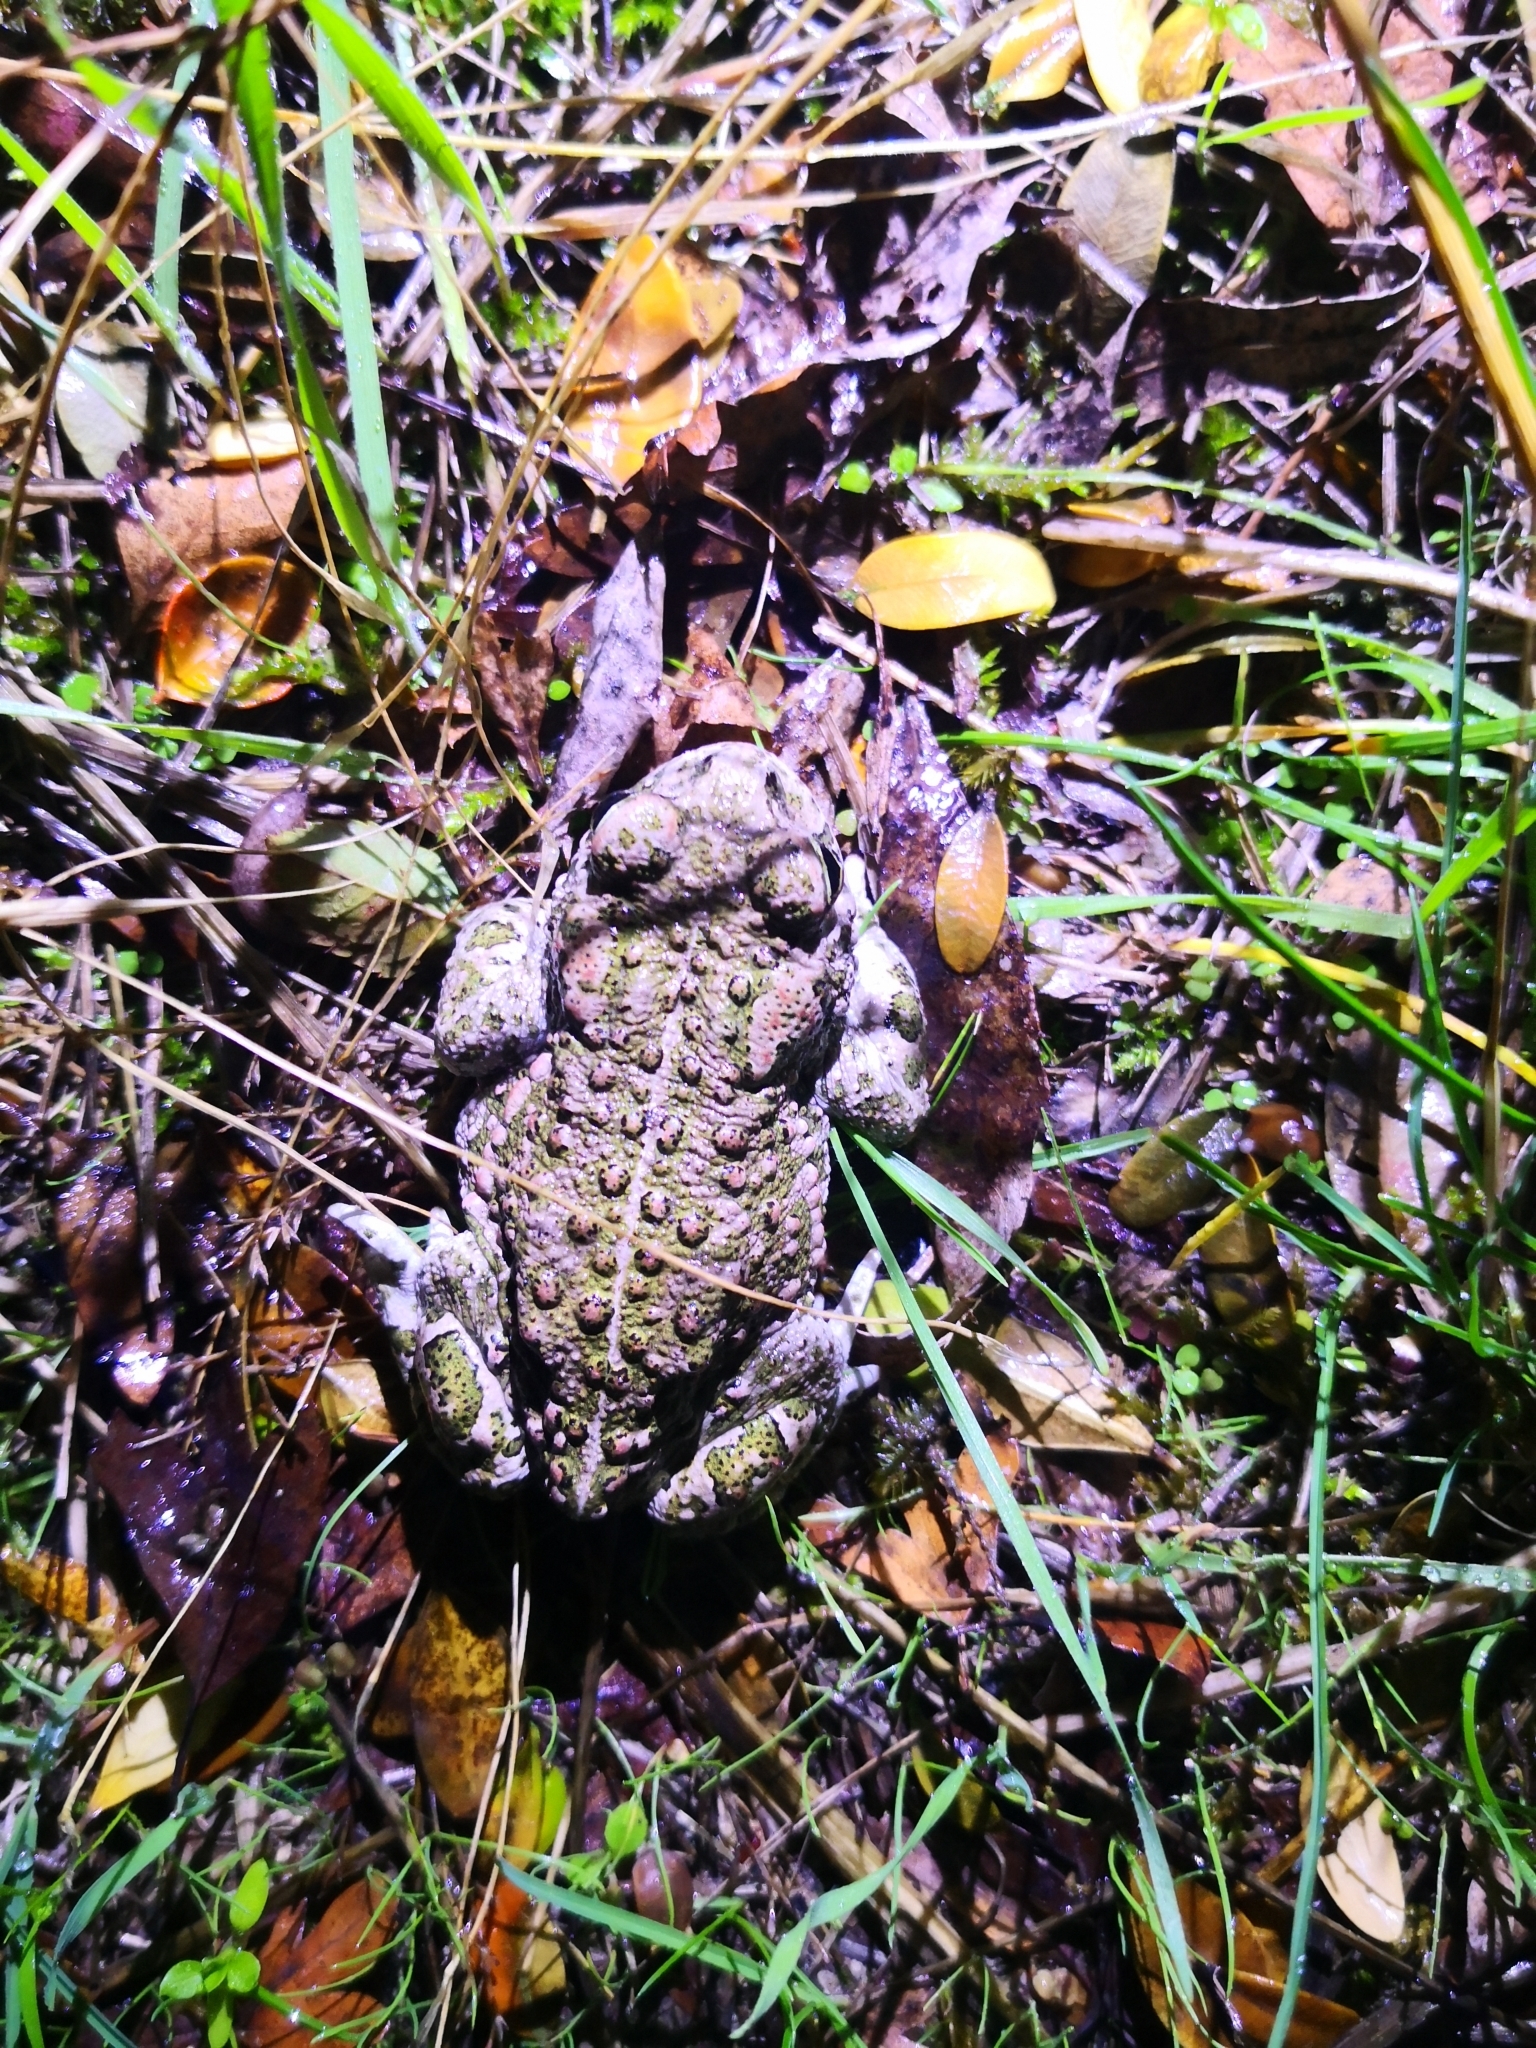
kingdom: Animalia
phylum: Chordata
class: Amphibia
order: Anura
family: Bufonidae
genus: Epidalea
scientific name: Epidalea calamita
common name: Natterjack toad
